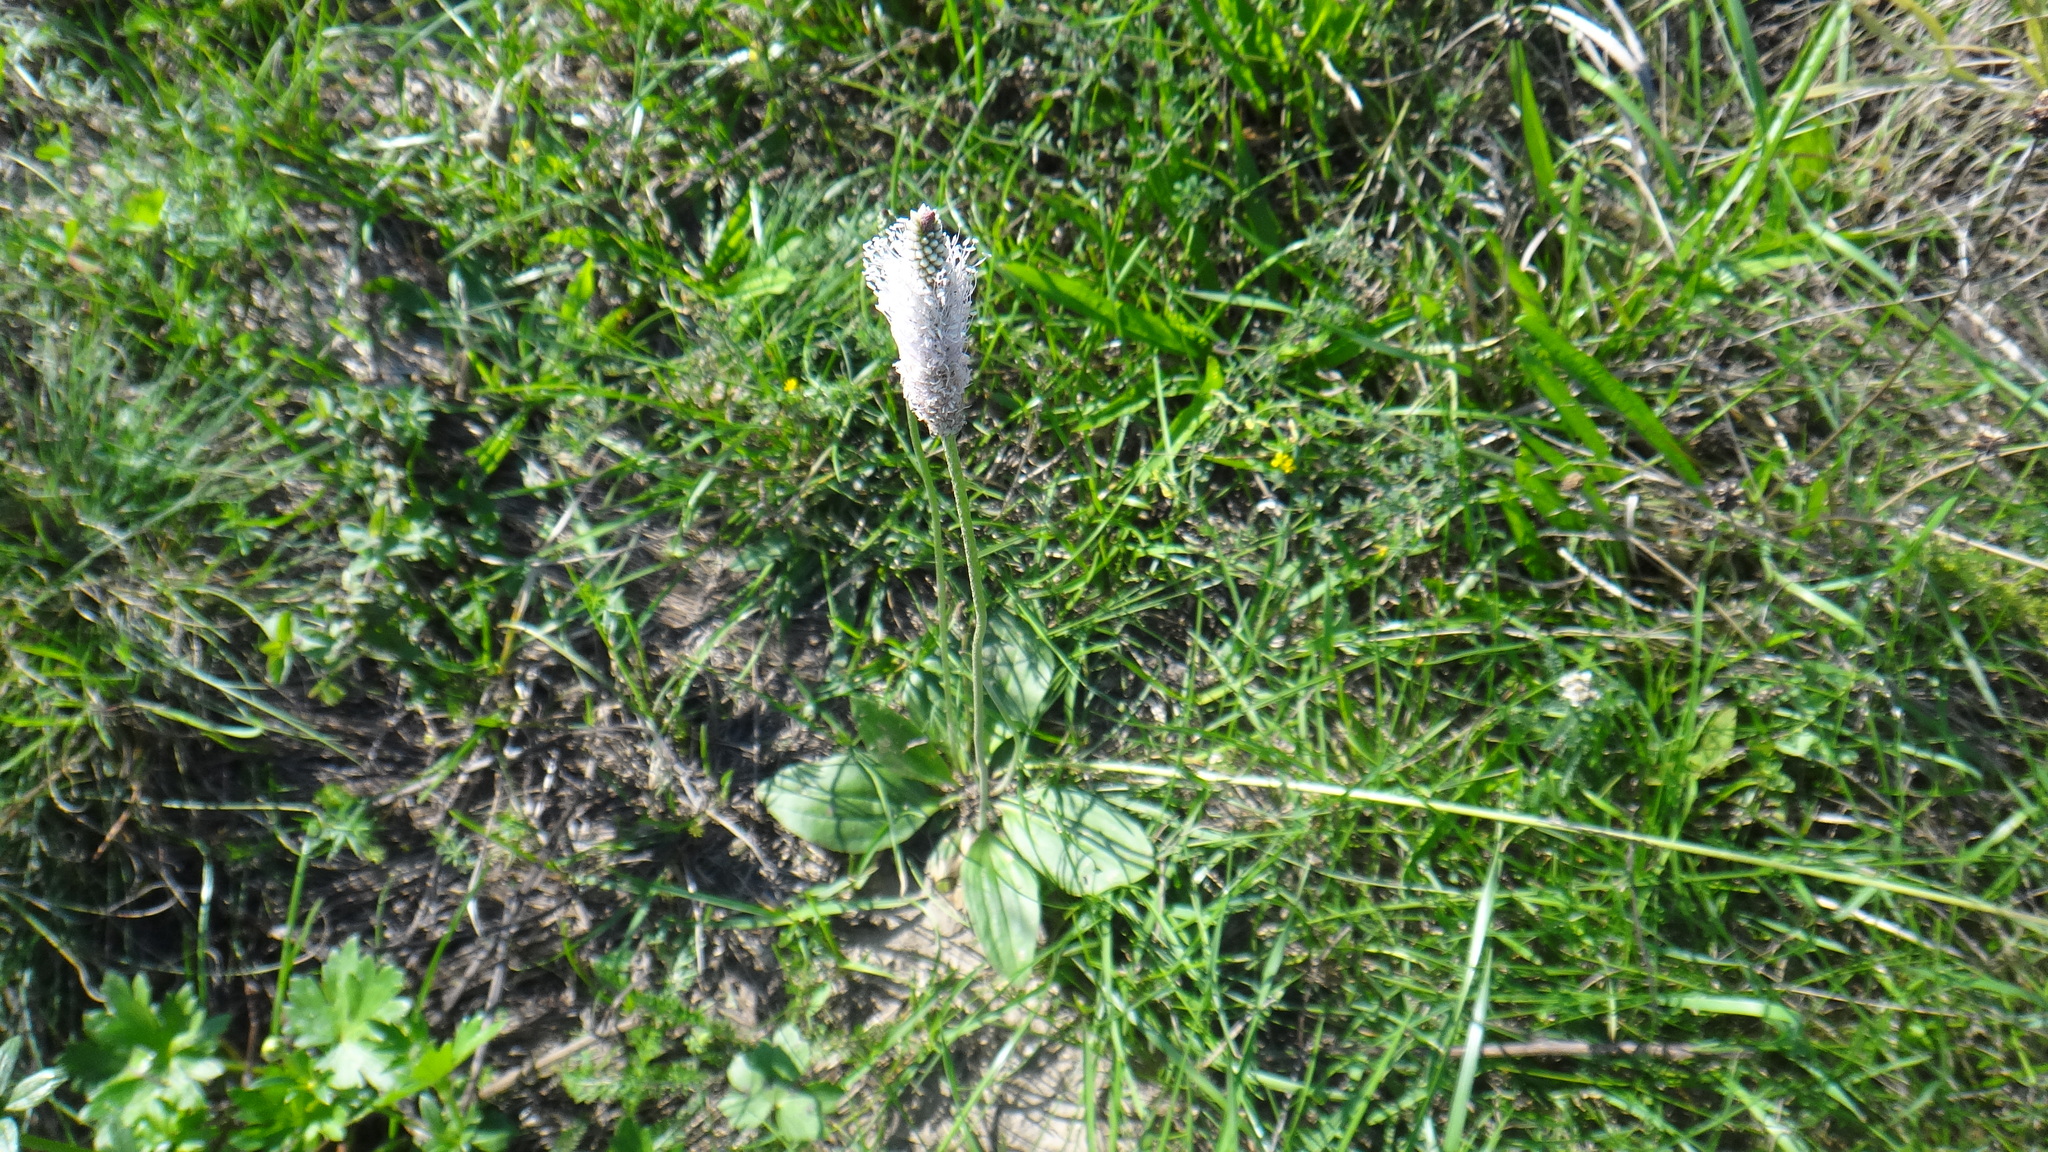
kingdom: Plantae
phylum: Tracheophyta
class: Magnoliopsida
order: Lamiales
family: Plantaginaceae
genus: Plantago
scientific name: Plantago media
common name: Hoary plantain
